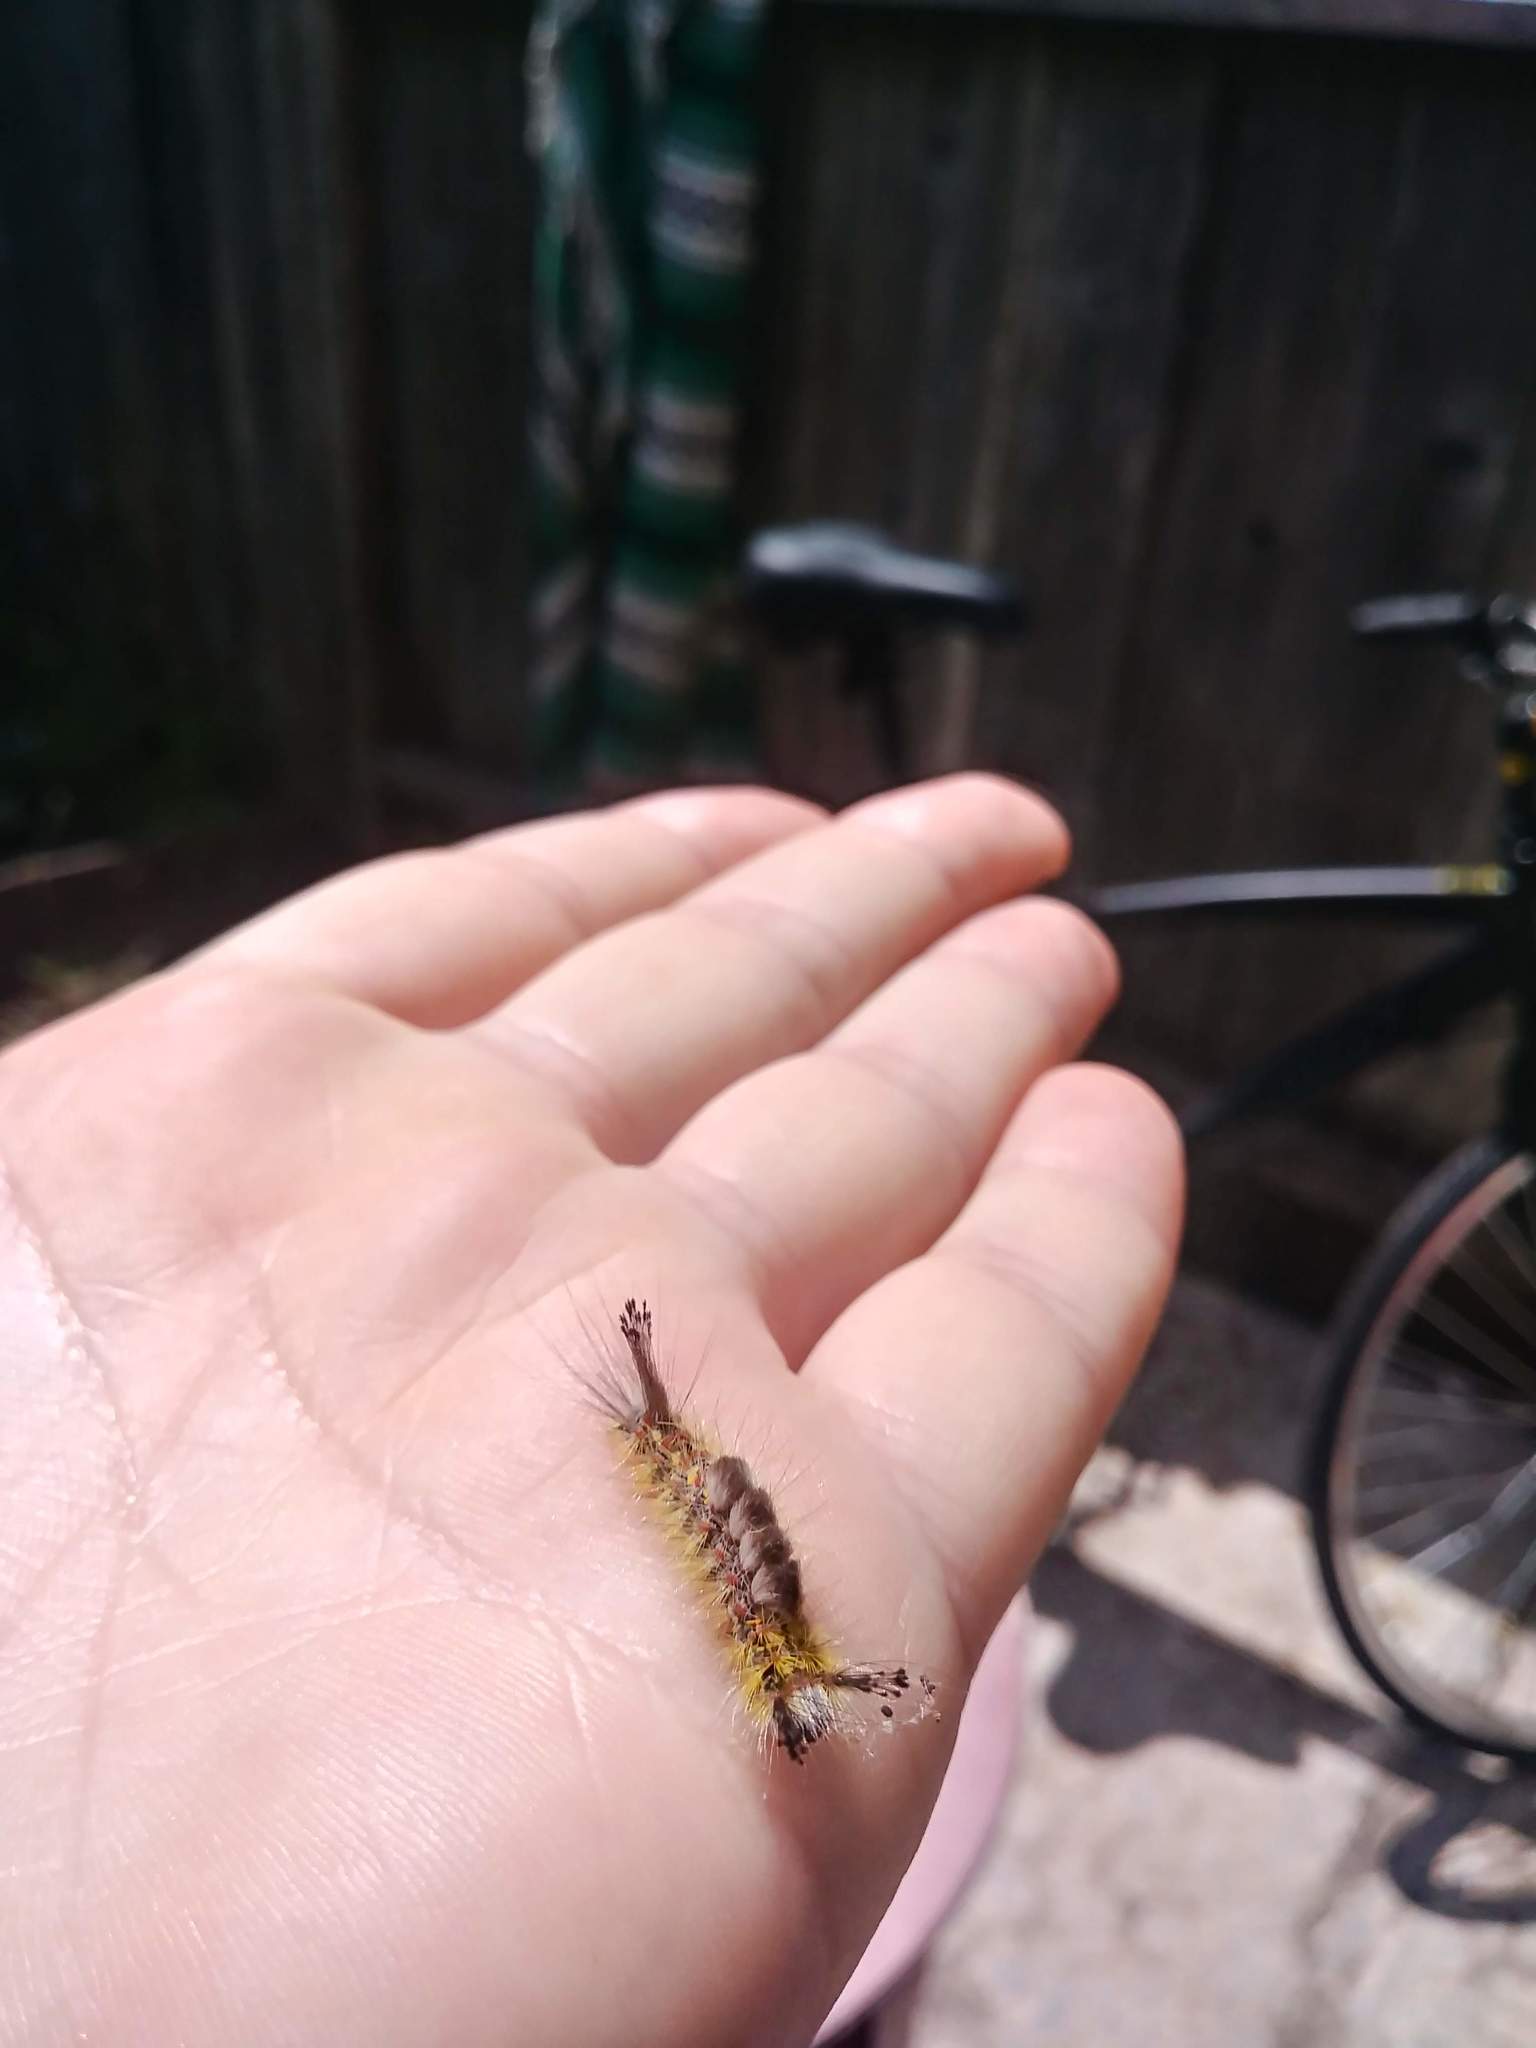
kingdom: Animalia
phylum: Arthropoda
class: Insecta
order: Lepidoptera
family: Erebidae
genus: Orgyia
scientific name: Orgyia vetusta
